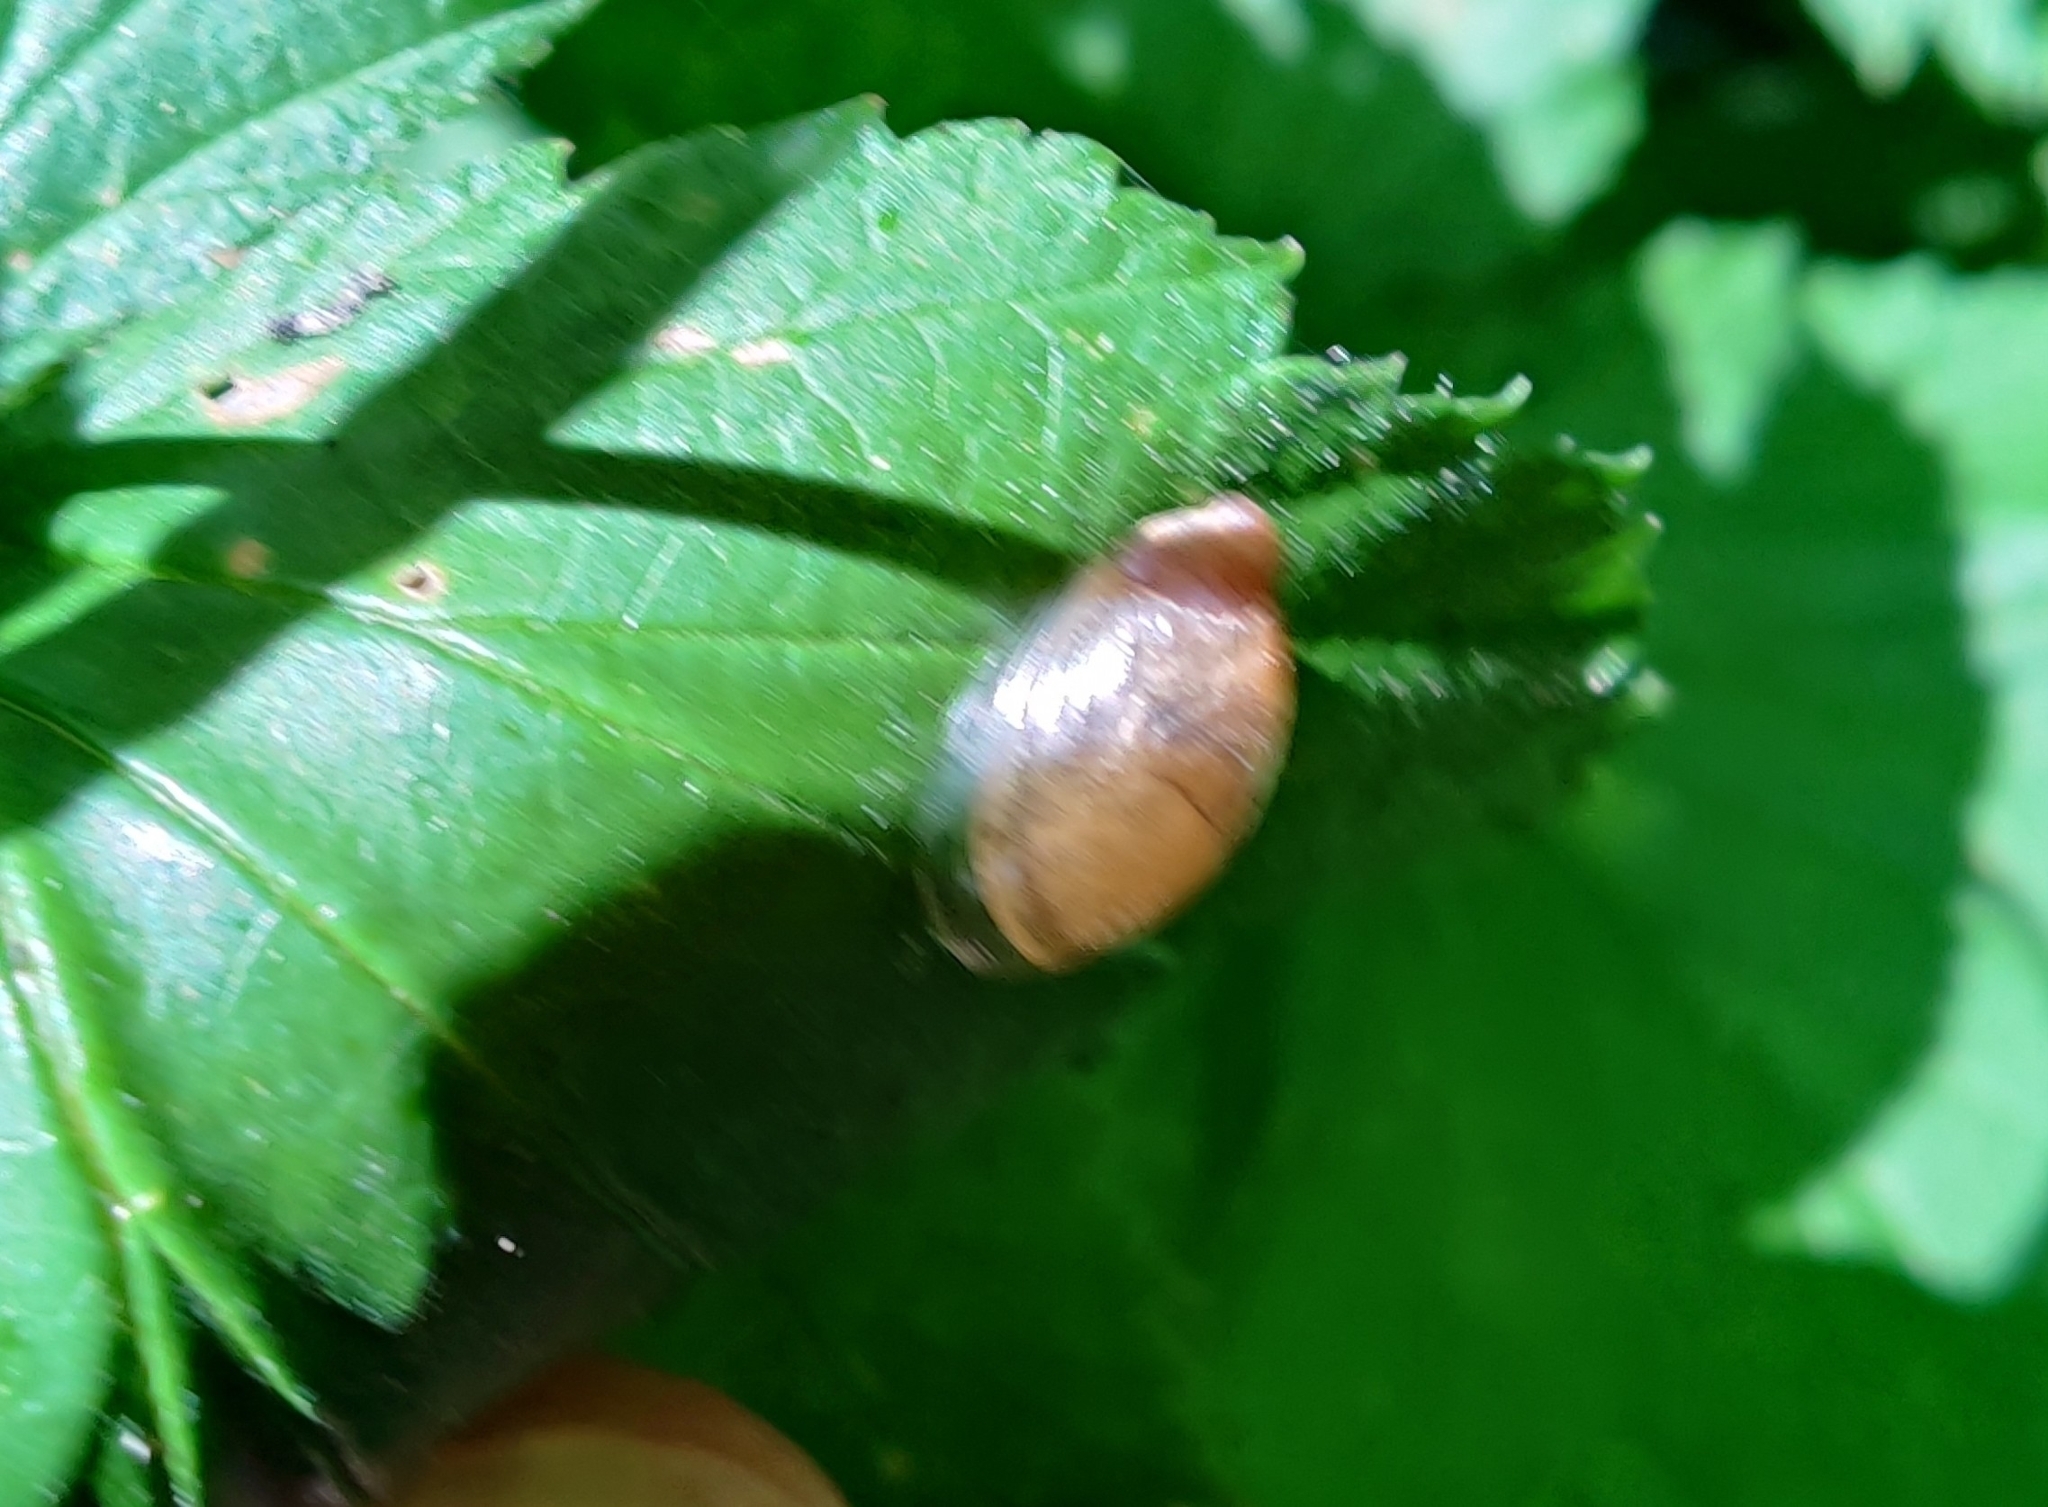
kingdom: Animalia
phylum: Mollusca
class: Gastropoda
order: Stylommatophora
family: Succineidae
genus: Succinea
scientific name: Succinea putris
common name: European ambersnail
